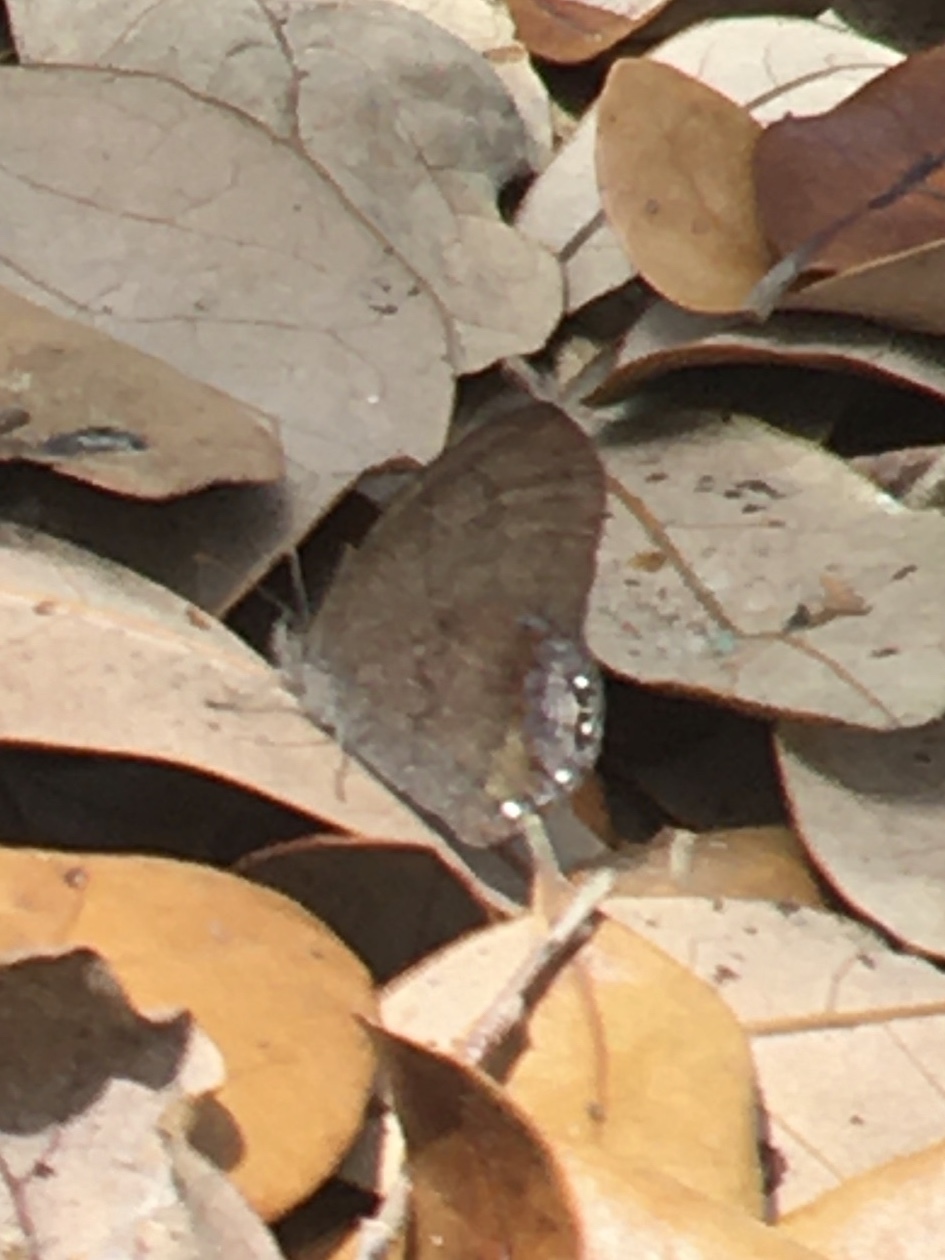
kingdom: Animalia
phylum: Arthropoda
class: Insecta
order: Lepidoptera
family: Nymphalidae
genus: Euptychia
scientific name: Euptychia cornelius
